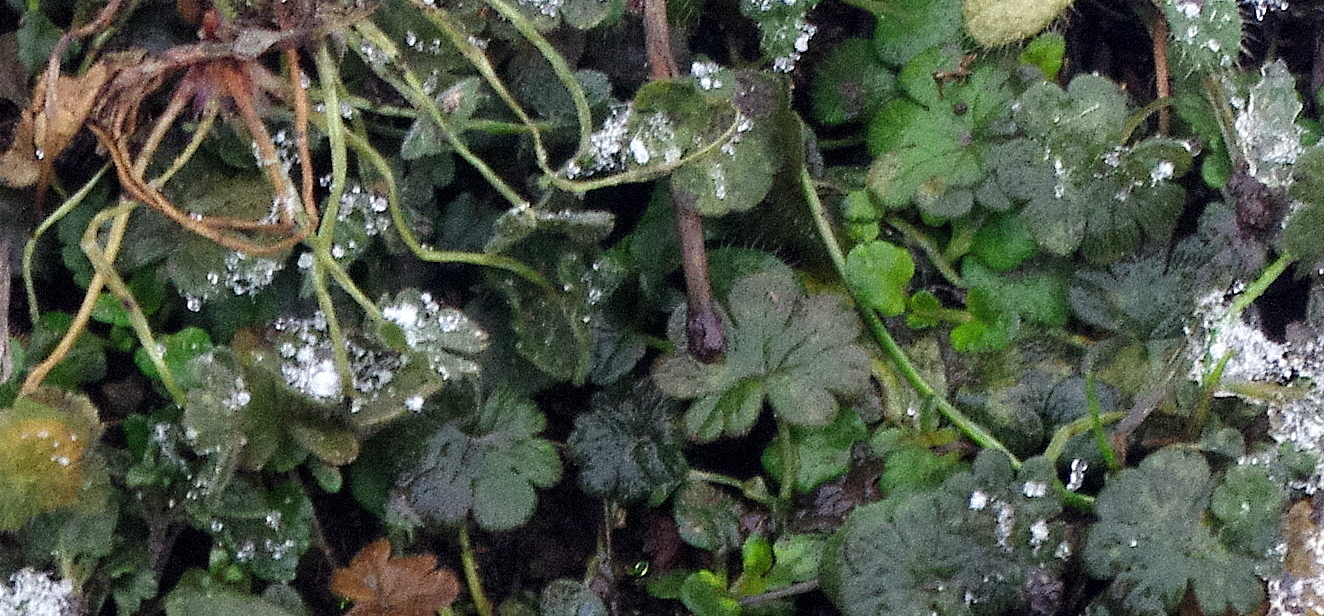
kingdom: Plantae
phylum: Tracheophyta
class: Magnoliopsida
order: Lamiales
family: Lamiaceae
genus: Glechoma
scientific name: Glechoma hederacea
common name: Ground ivy
